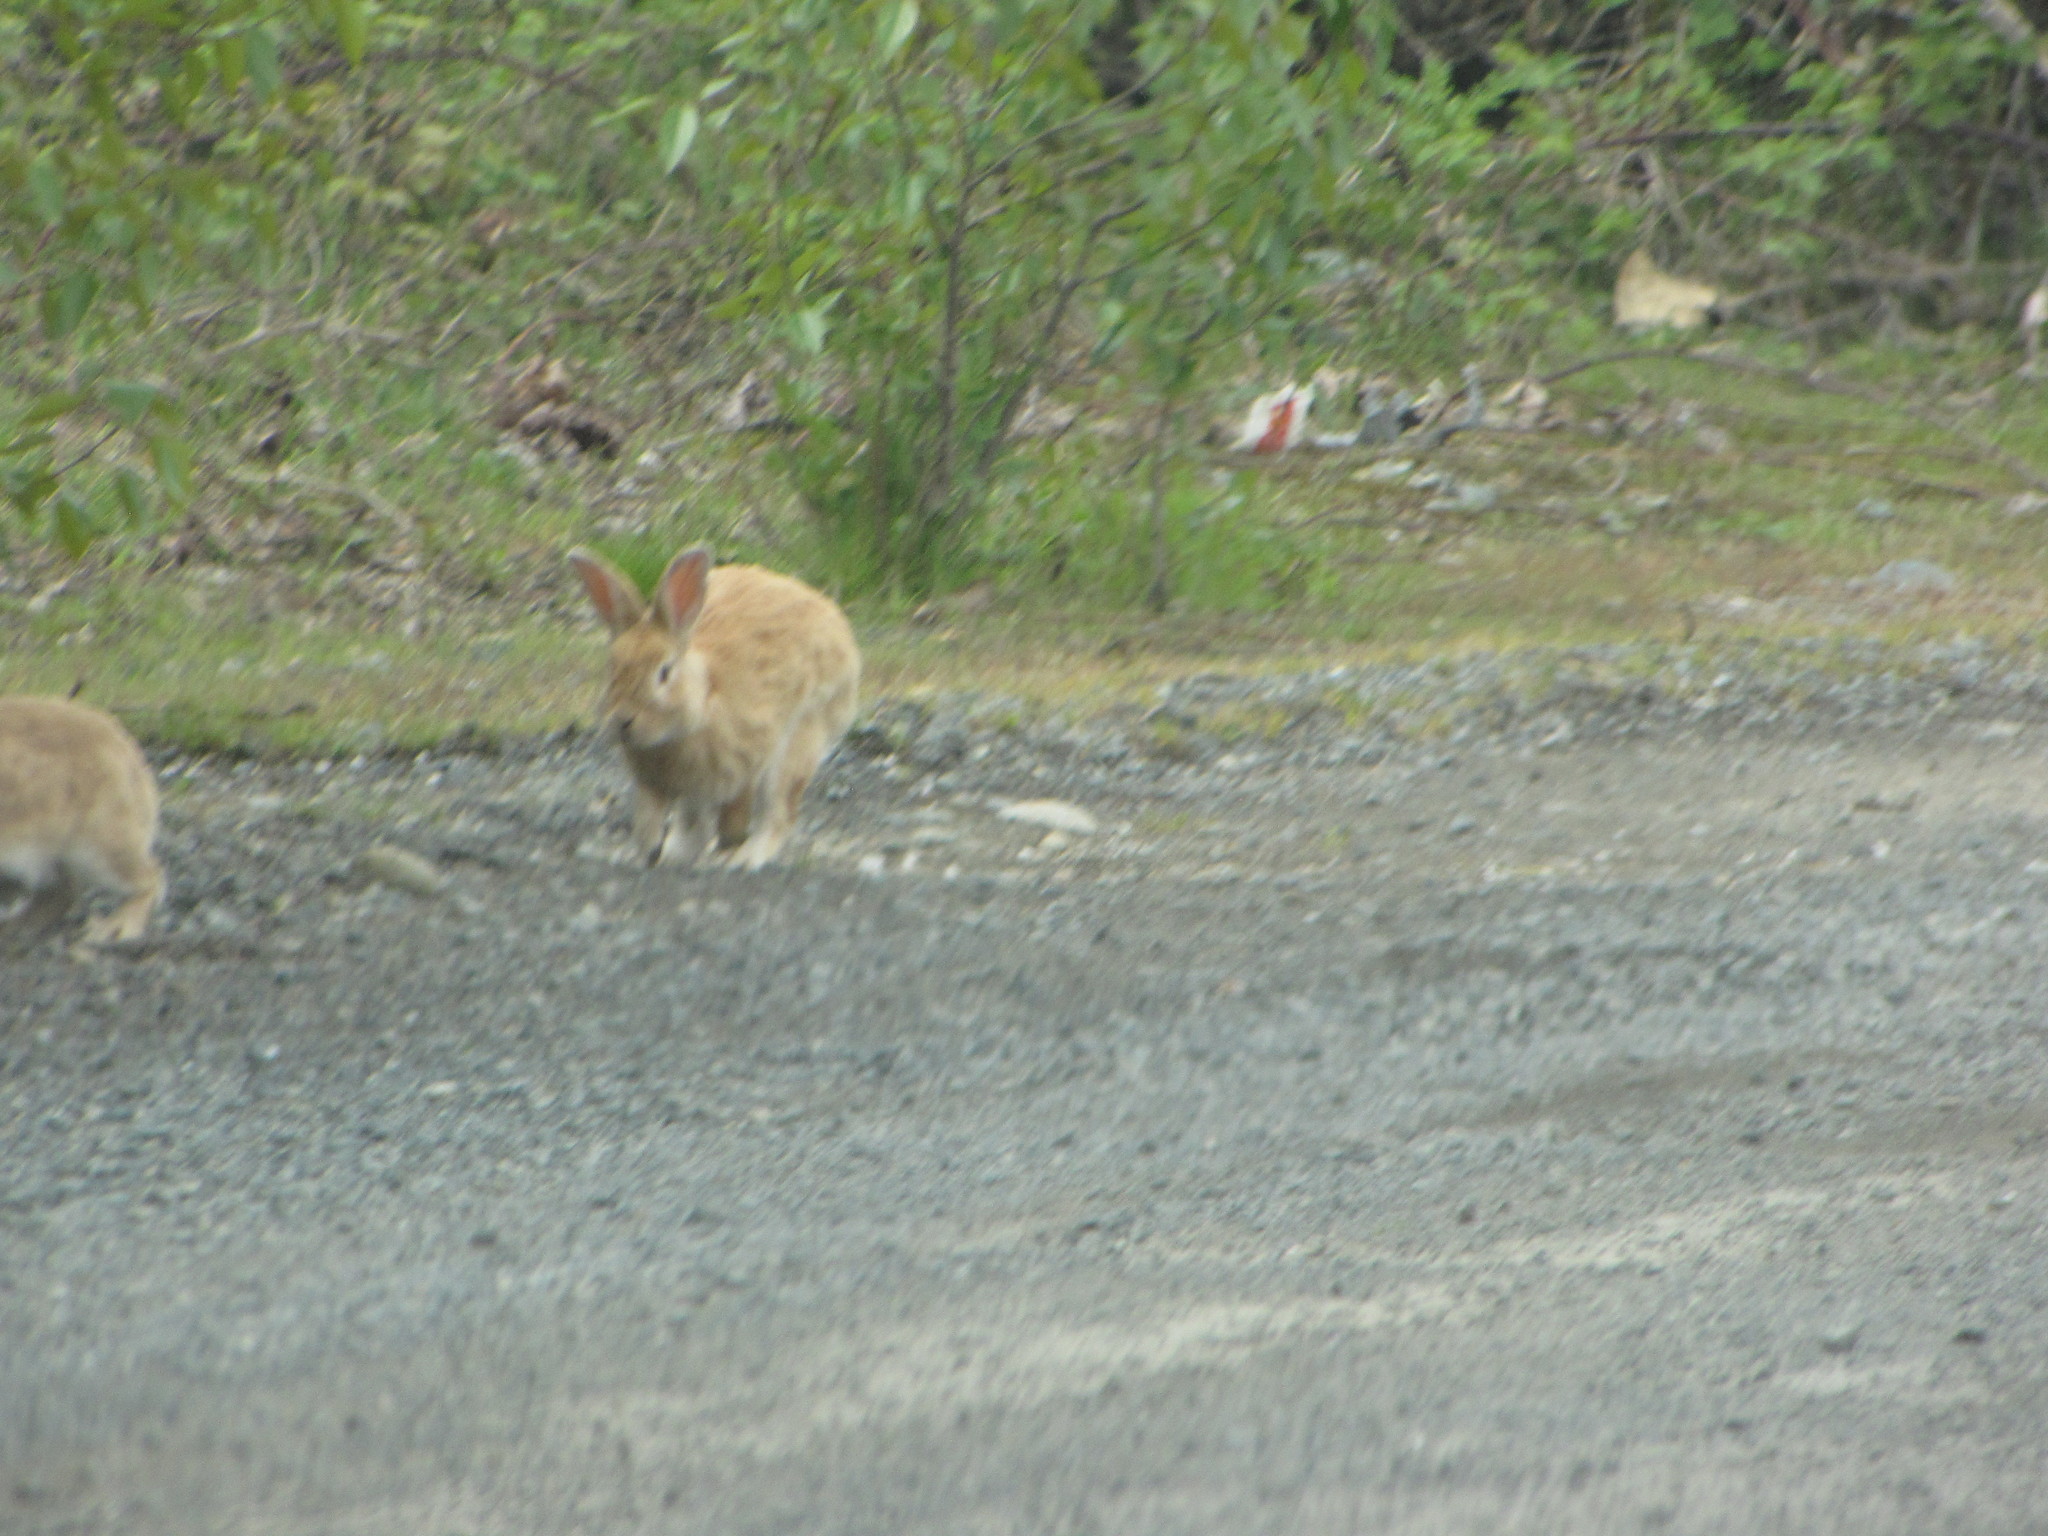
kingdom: Animalia
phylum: Chordata
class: Mammalia
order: Lagomorpha
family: Leporidae
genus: Oryctolagus
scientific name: Oryctolagus cuniculus
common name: European rabbit
